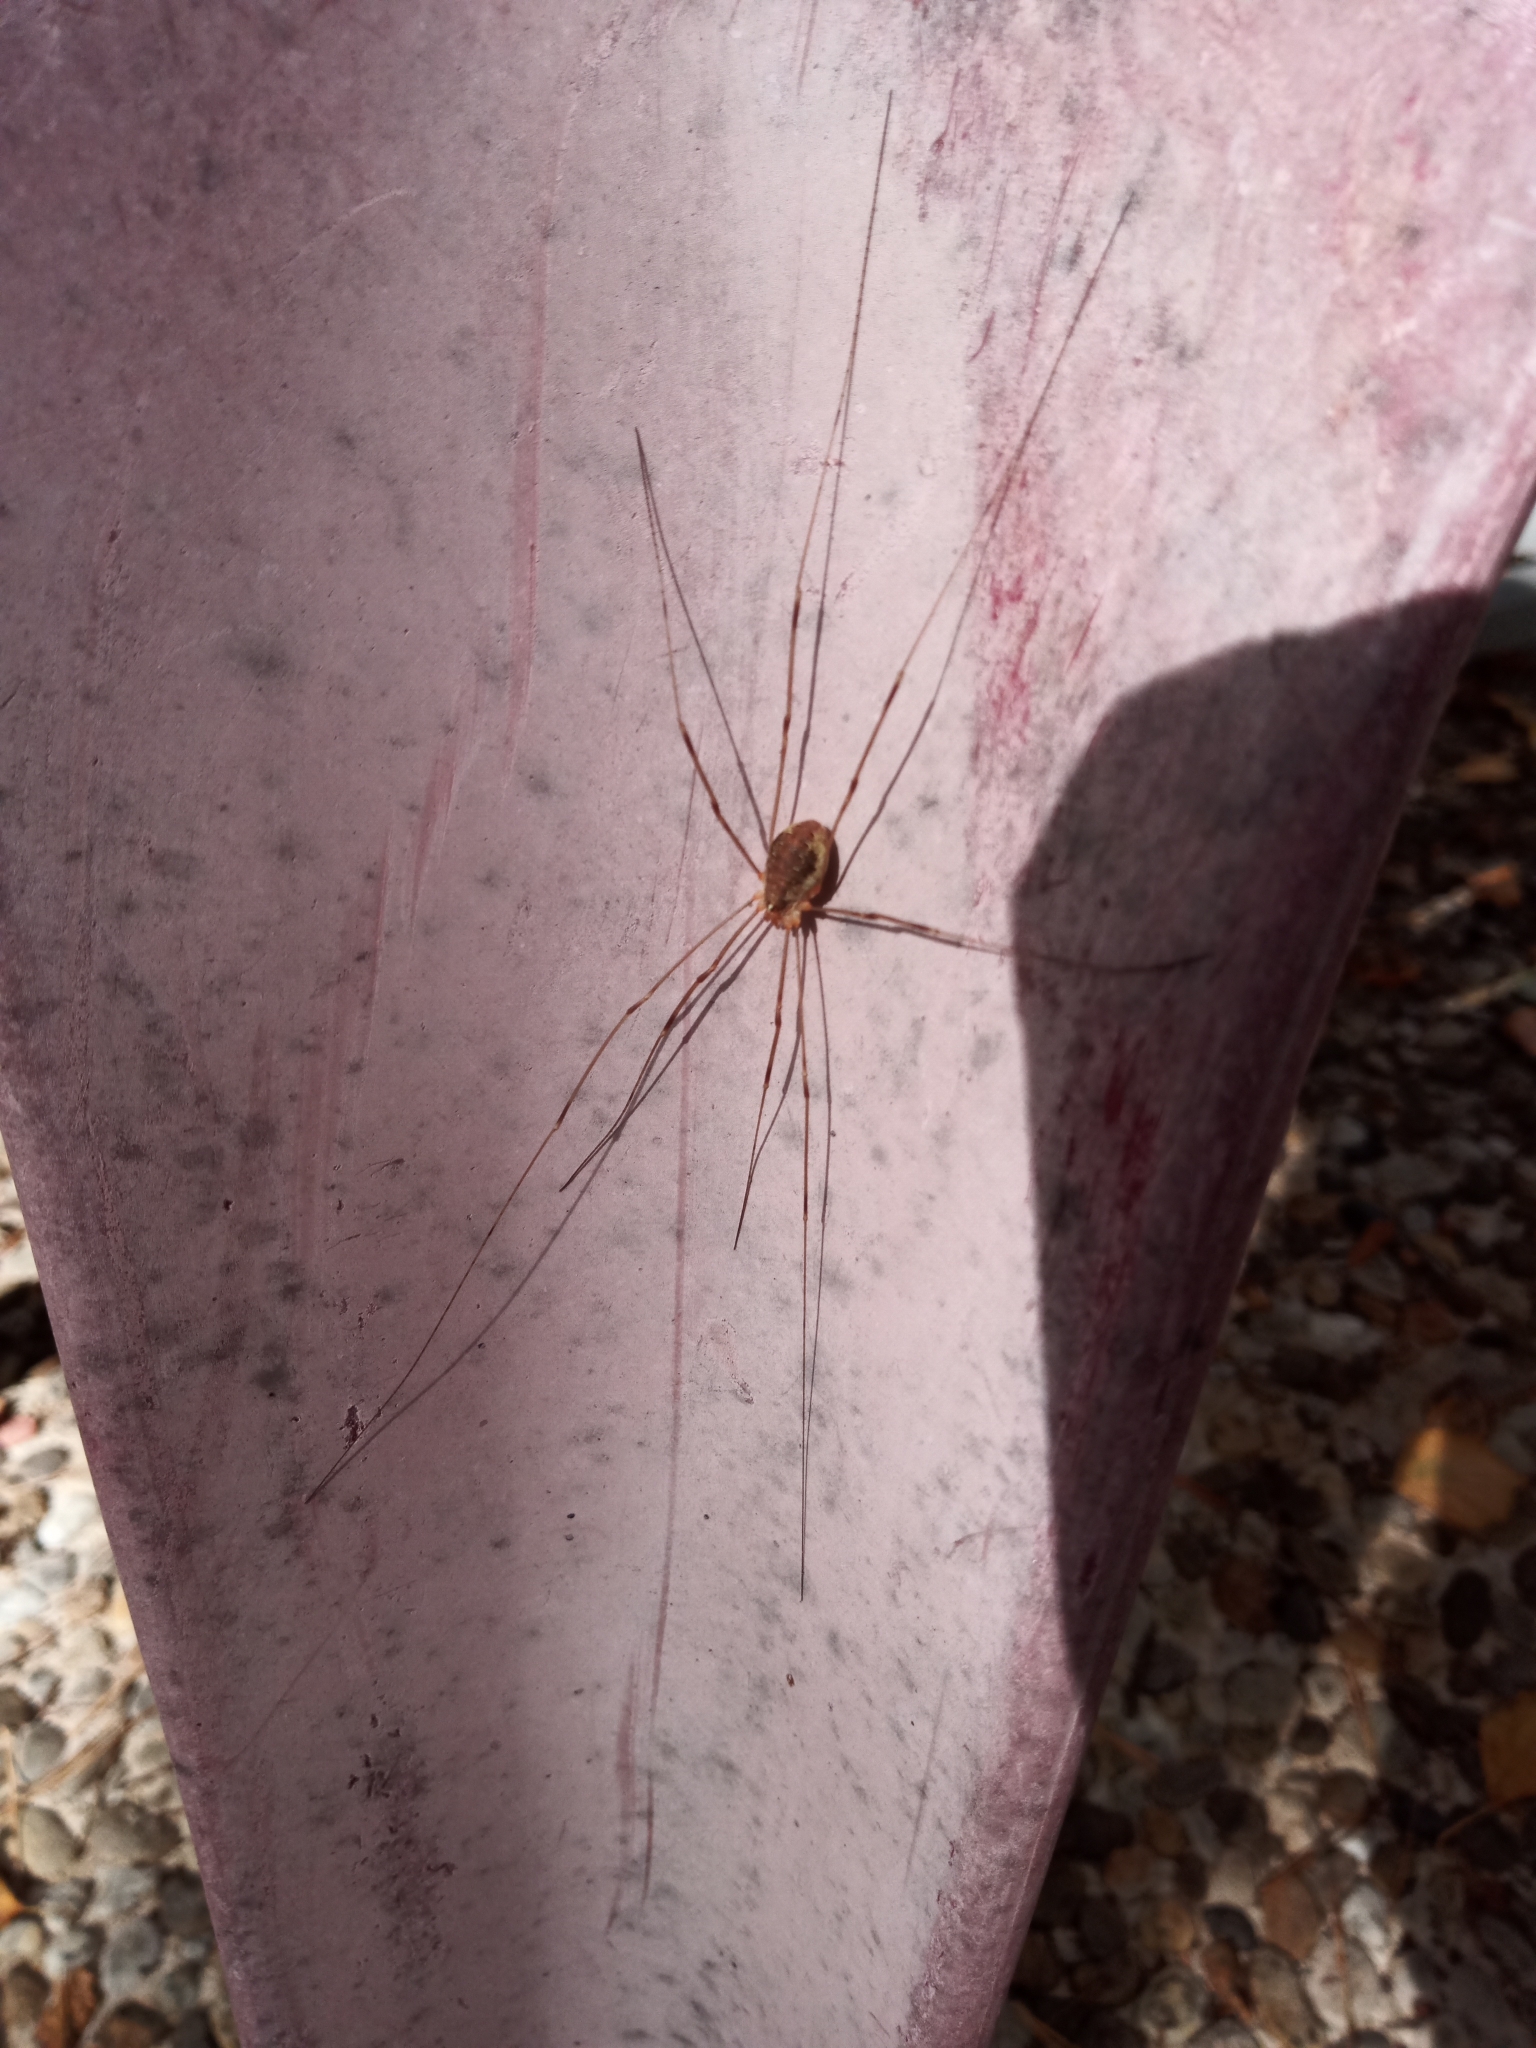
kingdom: Animalia
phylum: Arthropoda
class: Arachnida
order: Opiliones
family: Phalangiidae
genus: Opilio
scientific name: Opilio canestrinii
